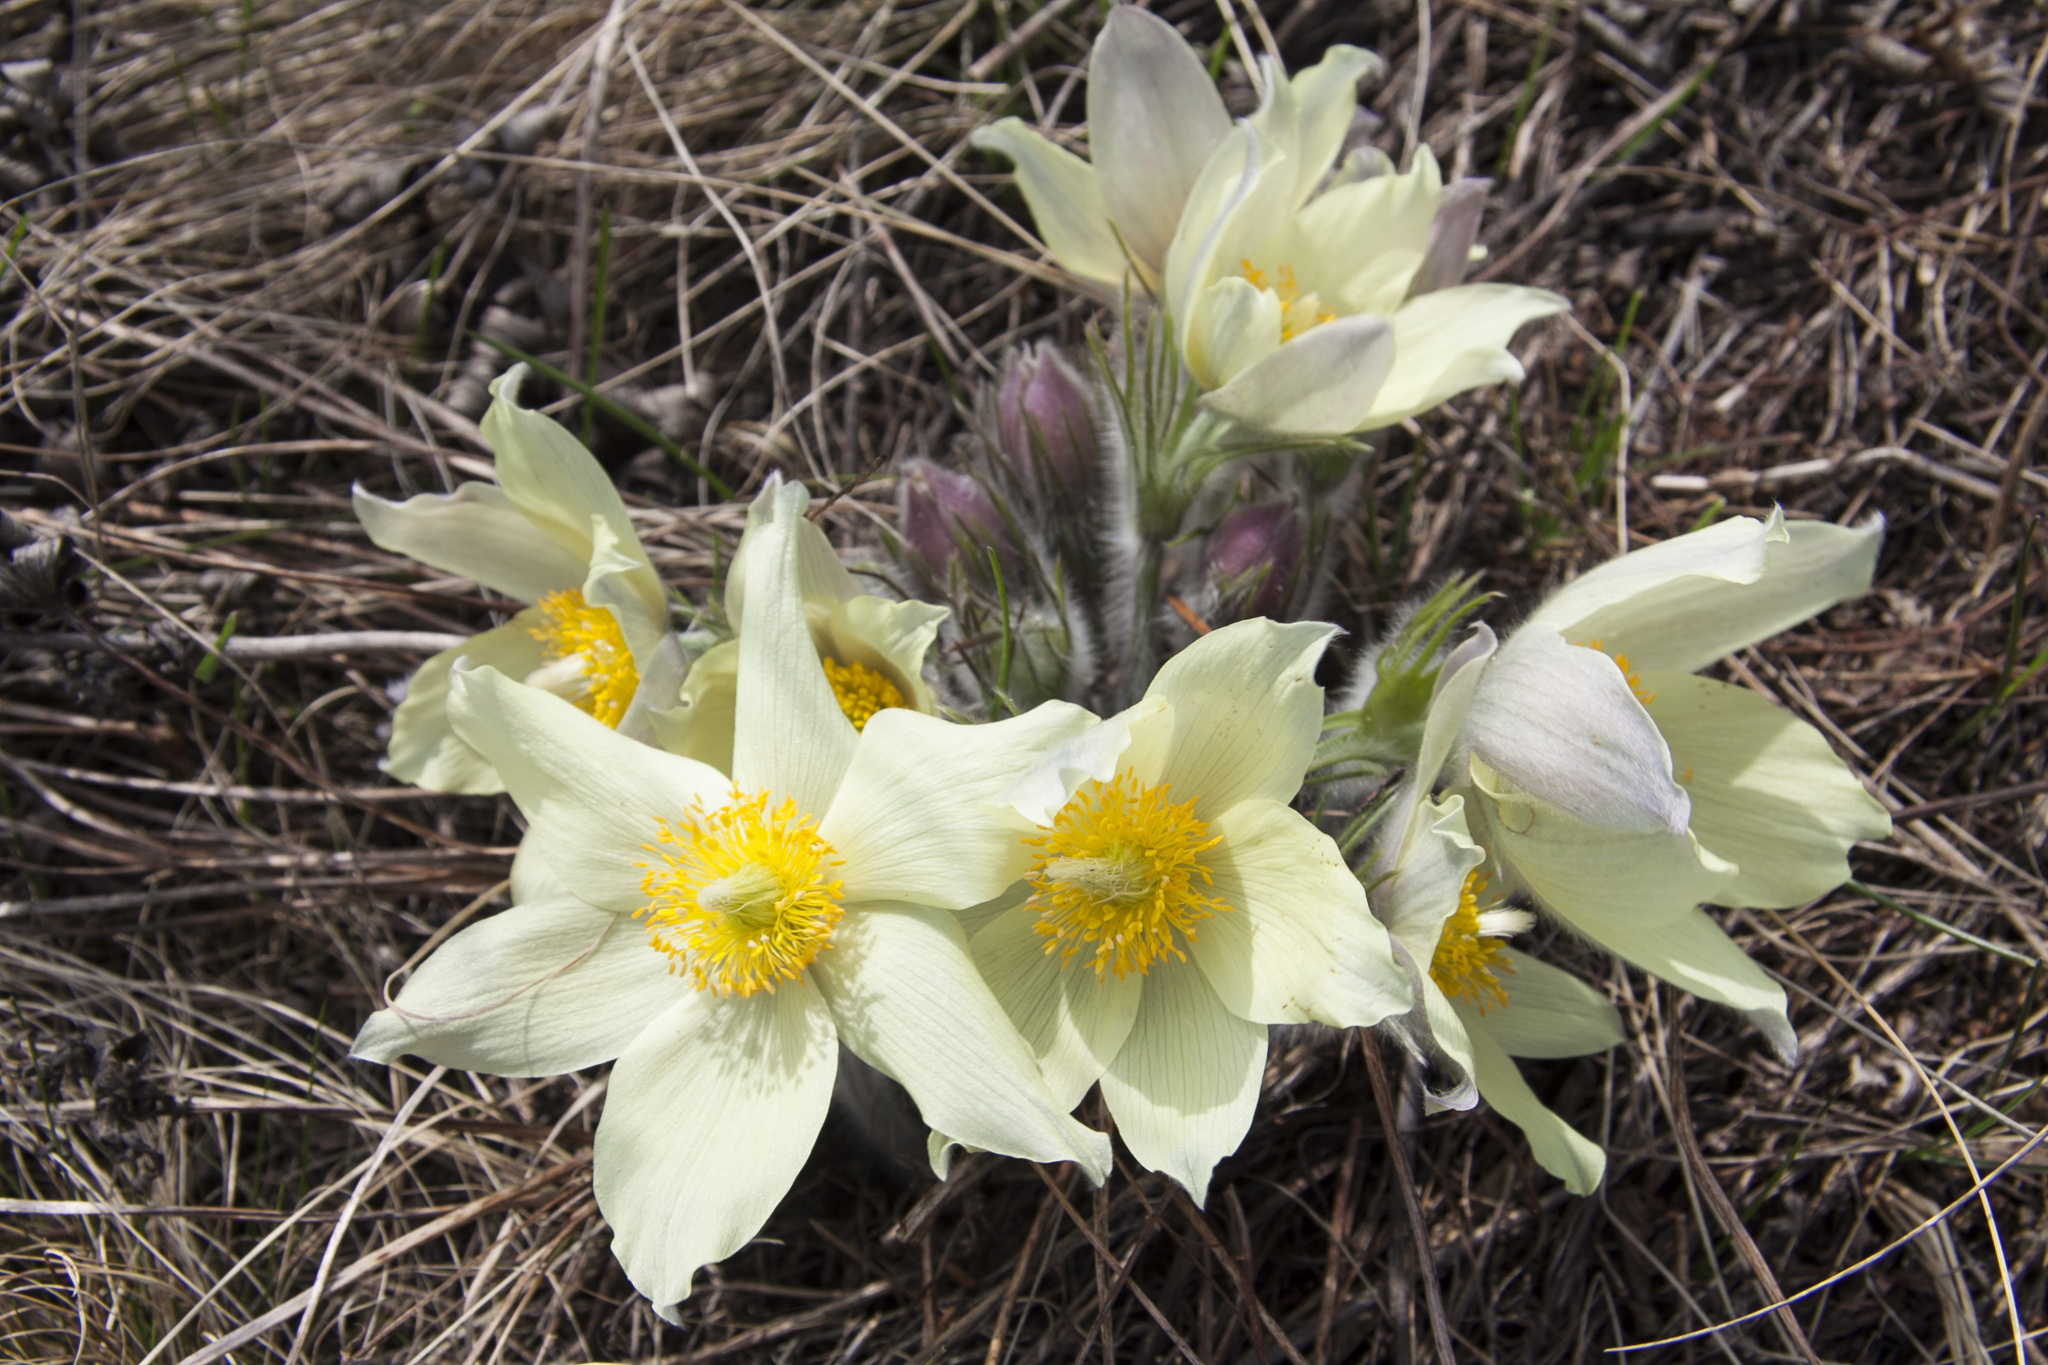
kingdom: Plantae
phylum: Tracheophyta
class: Magnoliopsida
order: Ranunculales
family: Ranunculaceae
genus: Pulsatilla
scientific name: Pulsatilla patens
